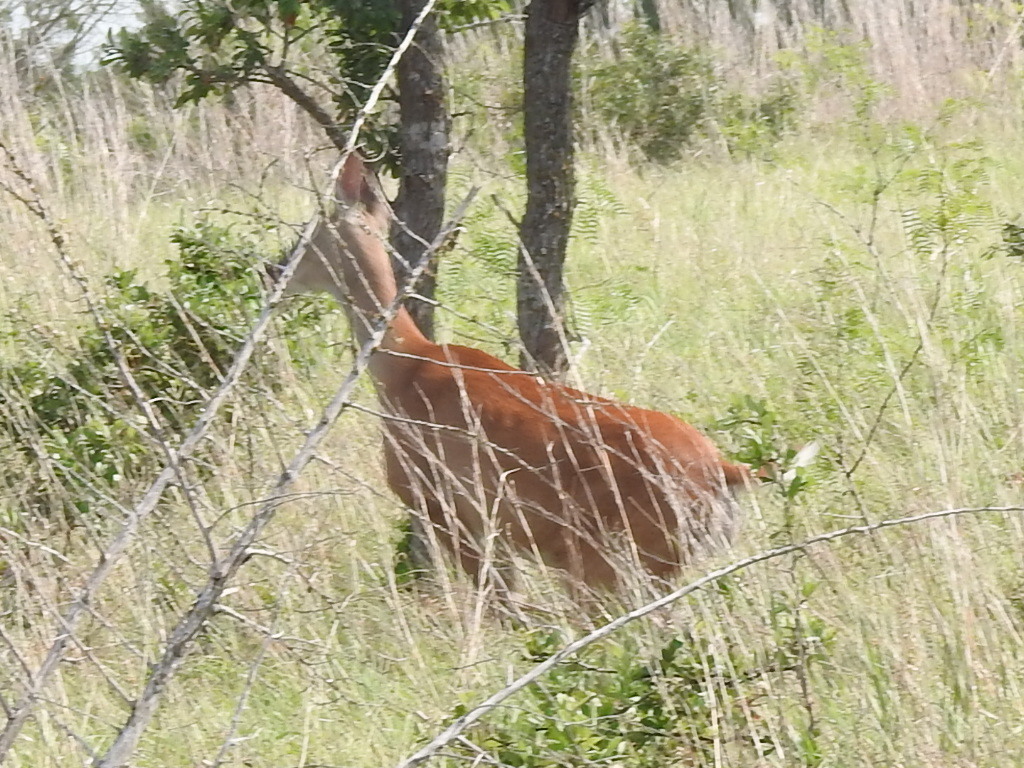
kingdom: Animalia
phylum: Chordata
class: Mammalia
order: Artiodactyla
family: Cervidae
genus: Odocoileus
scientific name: Odocoileus virginianus
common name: White-tailed deer
